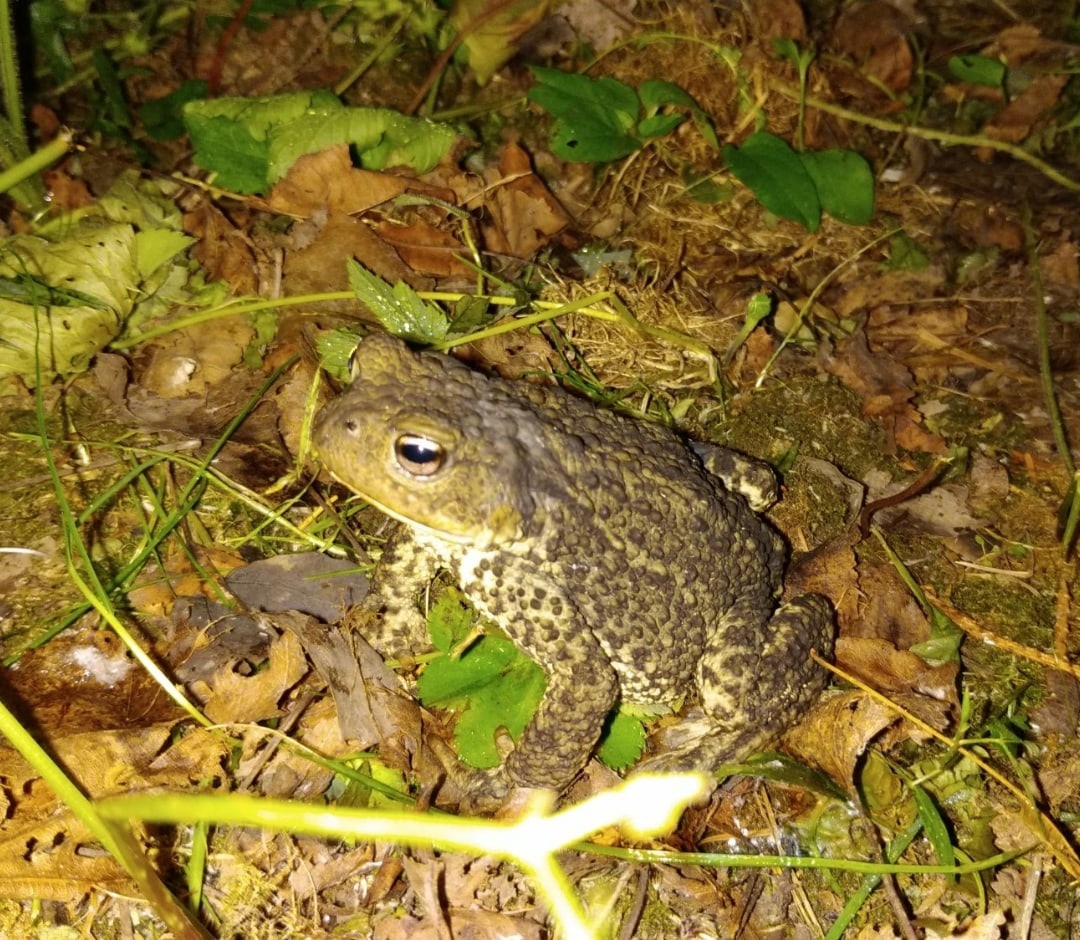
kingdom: Animalia
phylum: Chordata
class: Amphibia
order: Anura
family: Bufonidae
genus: Bufo
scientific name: Bufo bufo
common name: Common toad
